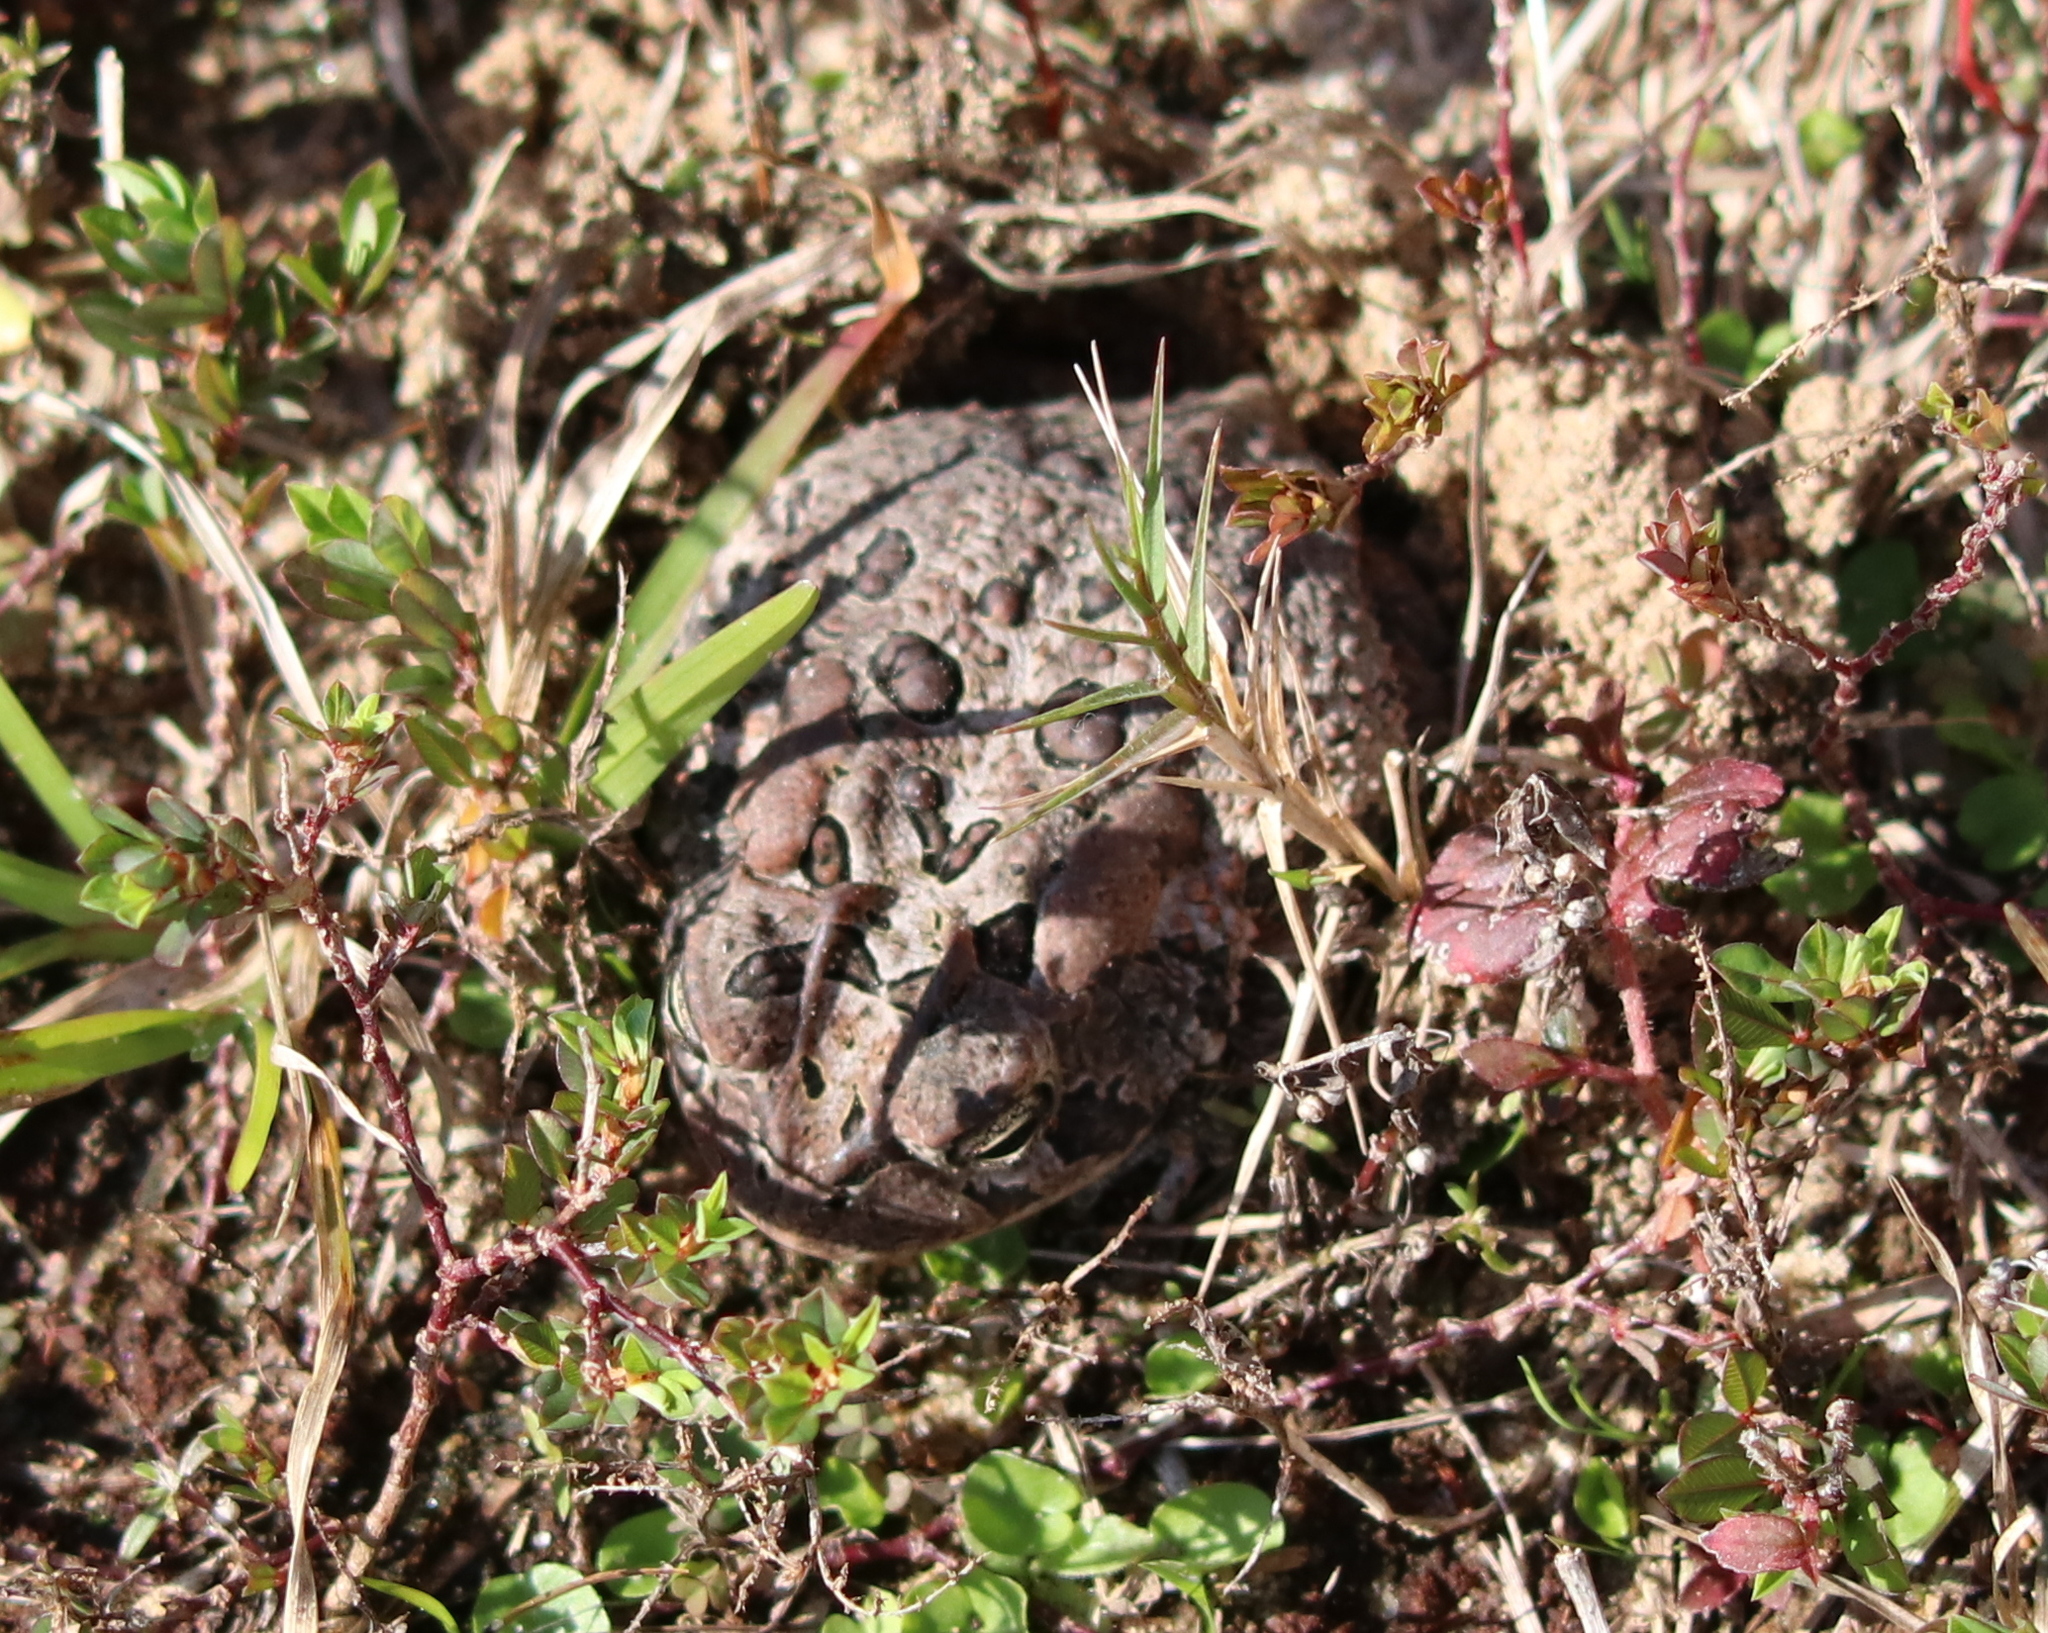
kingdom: Animalia
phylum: Chordata
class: Amphibia
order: Anura
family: Bufonidae
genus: Anaxyrus
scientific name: Anaxyrus terrestris
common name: Southern toad
